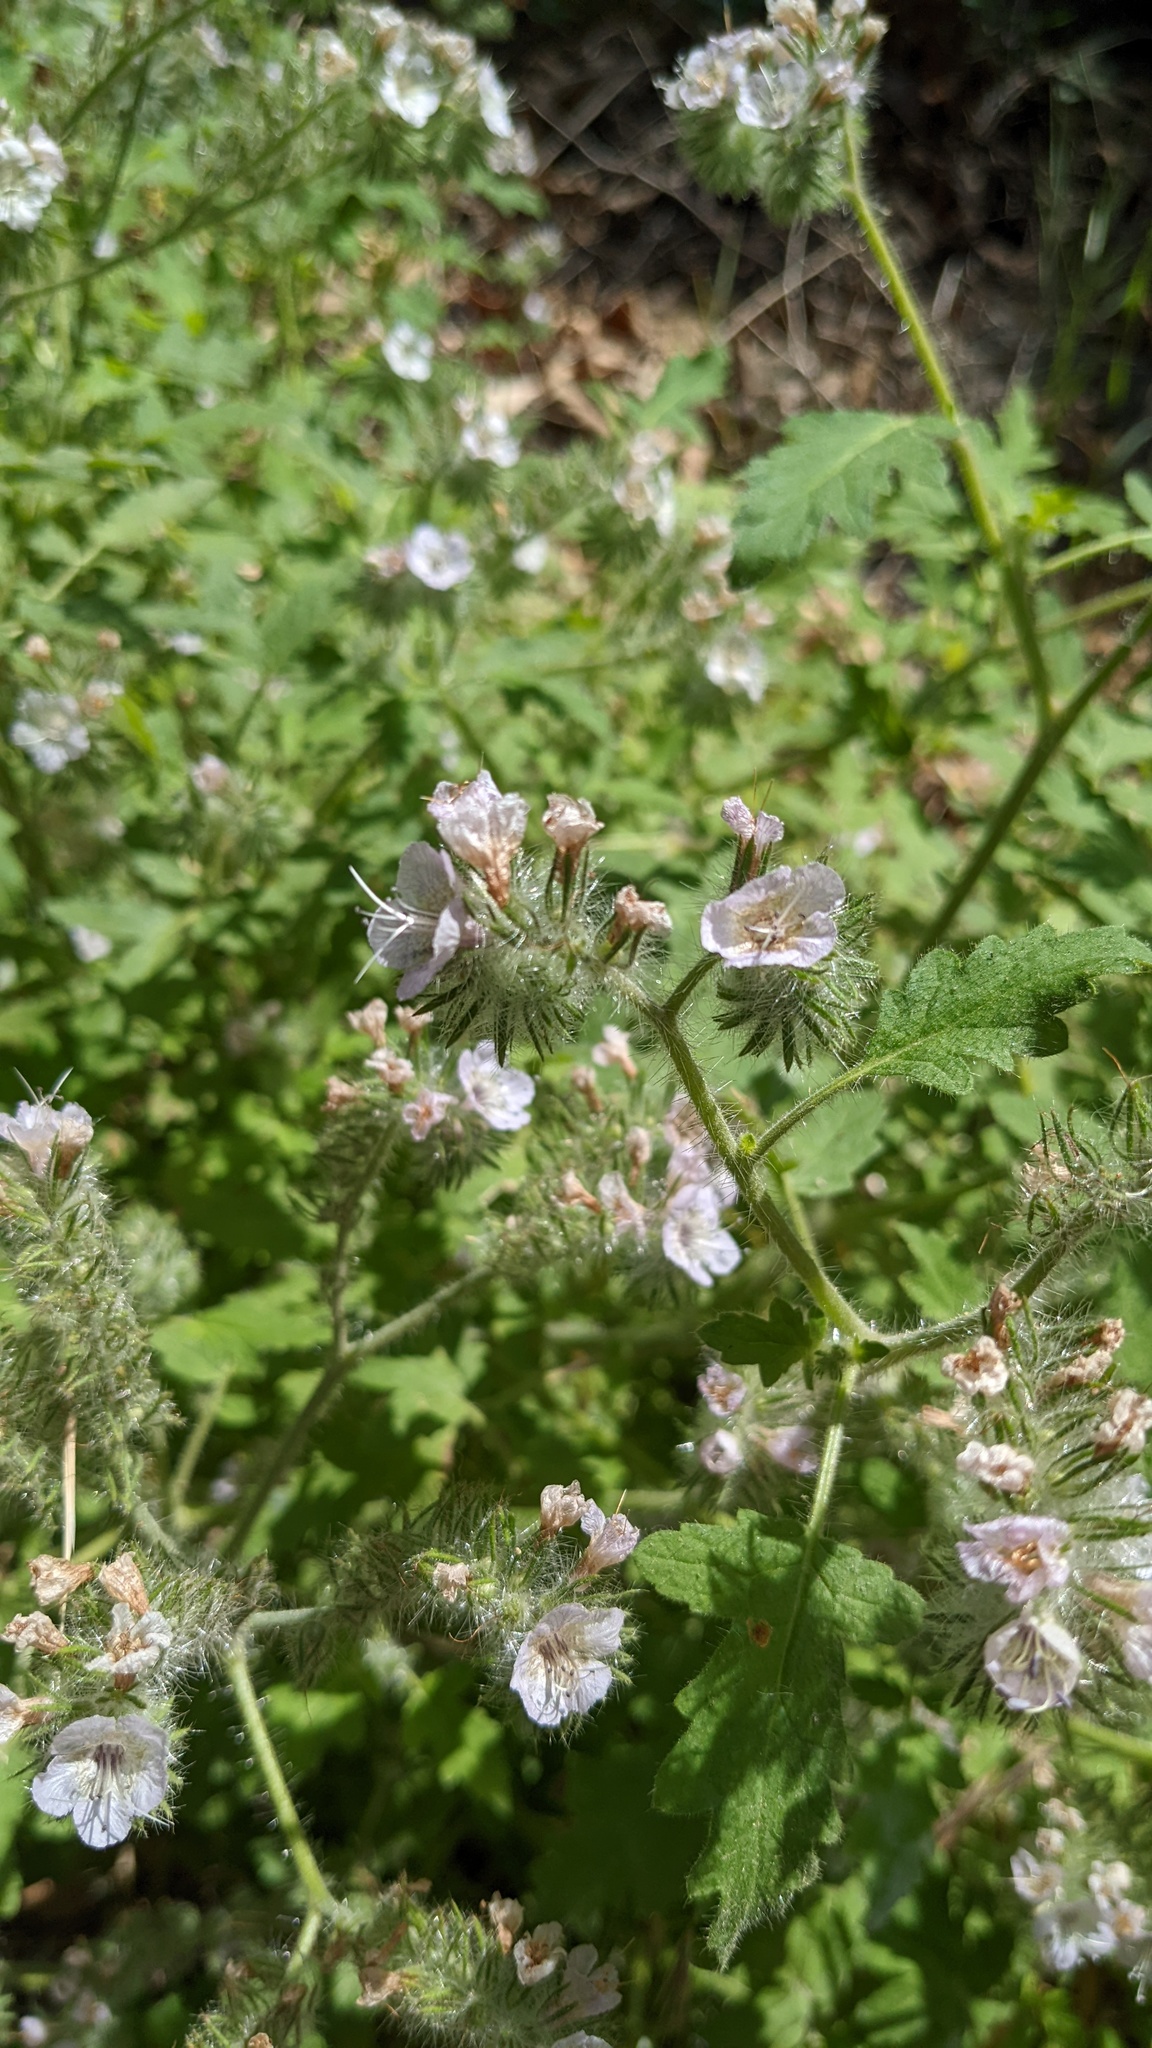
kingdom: Plantae
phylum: Tracheophyta
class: Magnoliopsida
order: Boraginales
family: Hydrophyllaceae
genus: Phacelia
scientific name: Phacelia cicutaria
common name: Caterpillar phacelia
